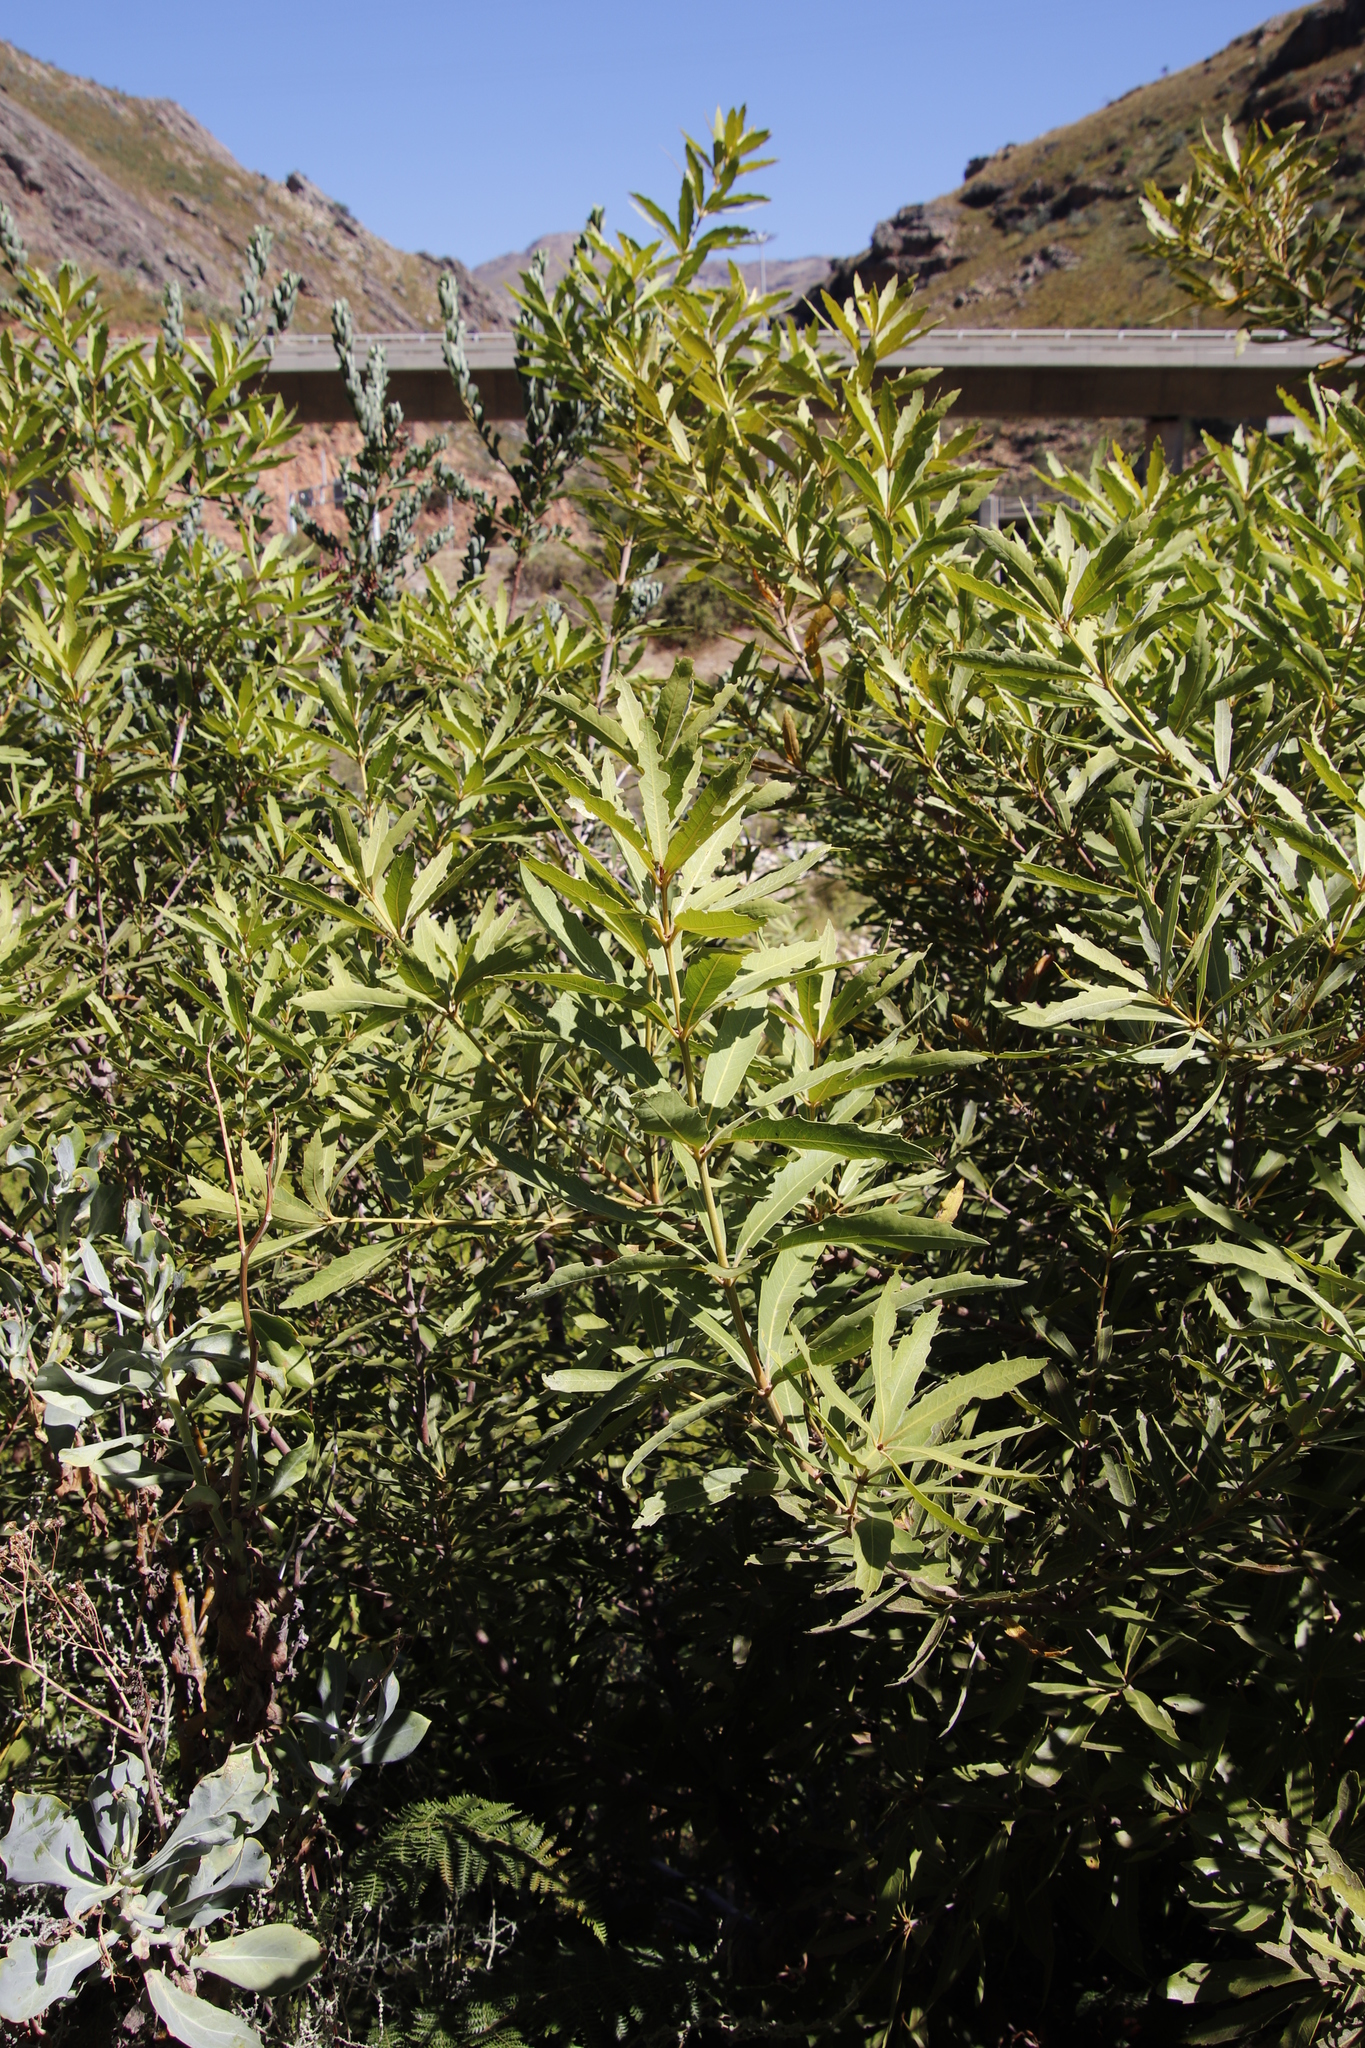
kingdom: Plantae
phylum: Tracheophyta
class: Magnoliopsida
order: Proteales
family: Proteaceae
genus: Brabejum
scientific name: Brabejum stellatifolium
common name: Wild almond
